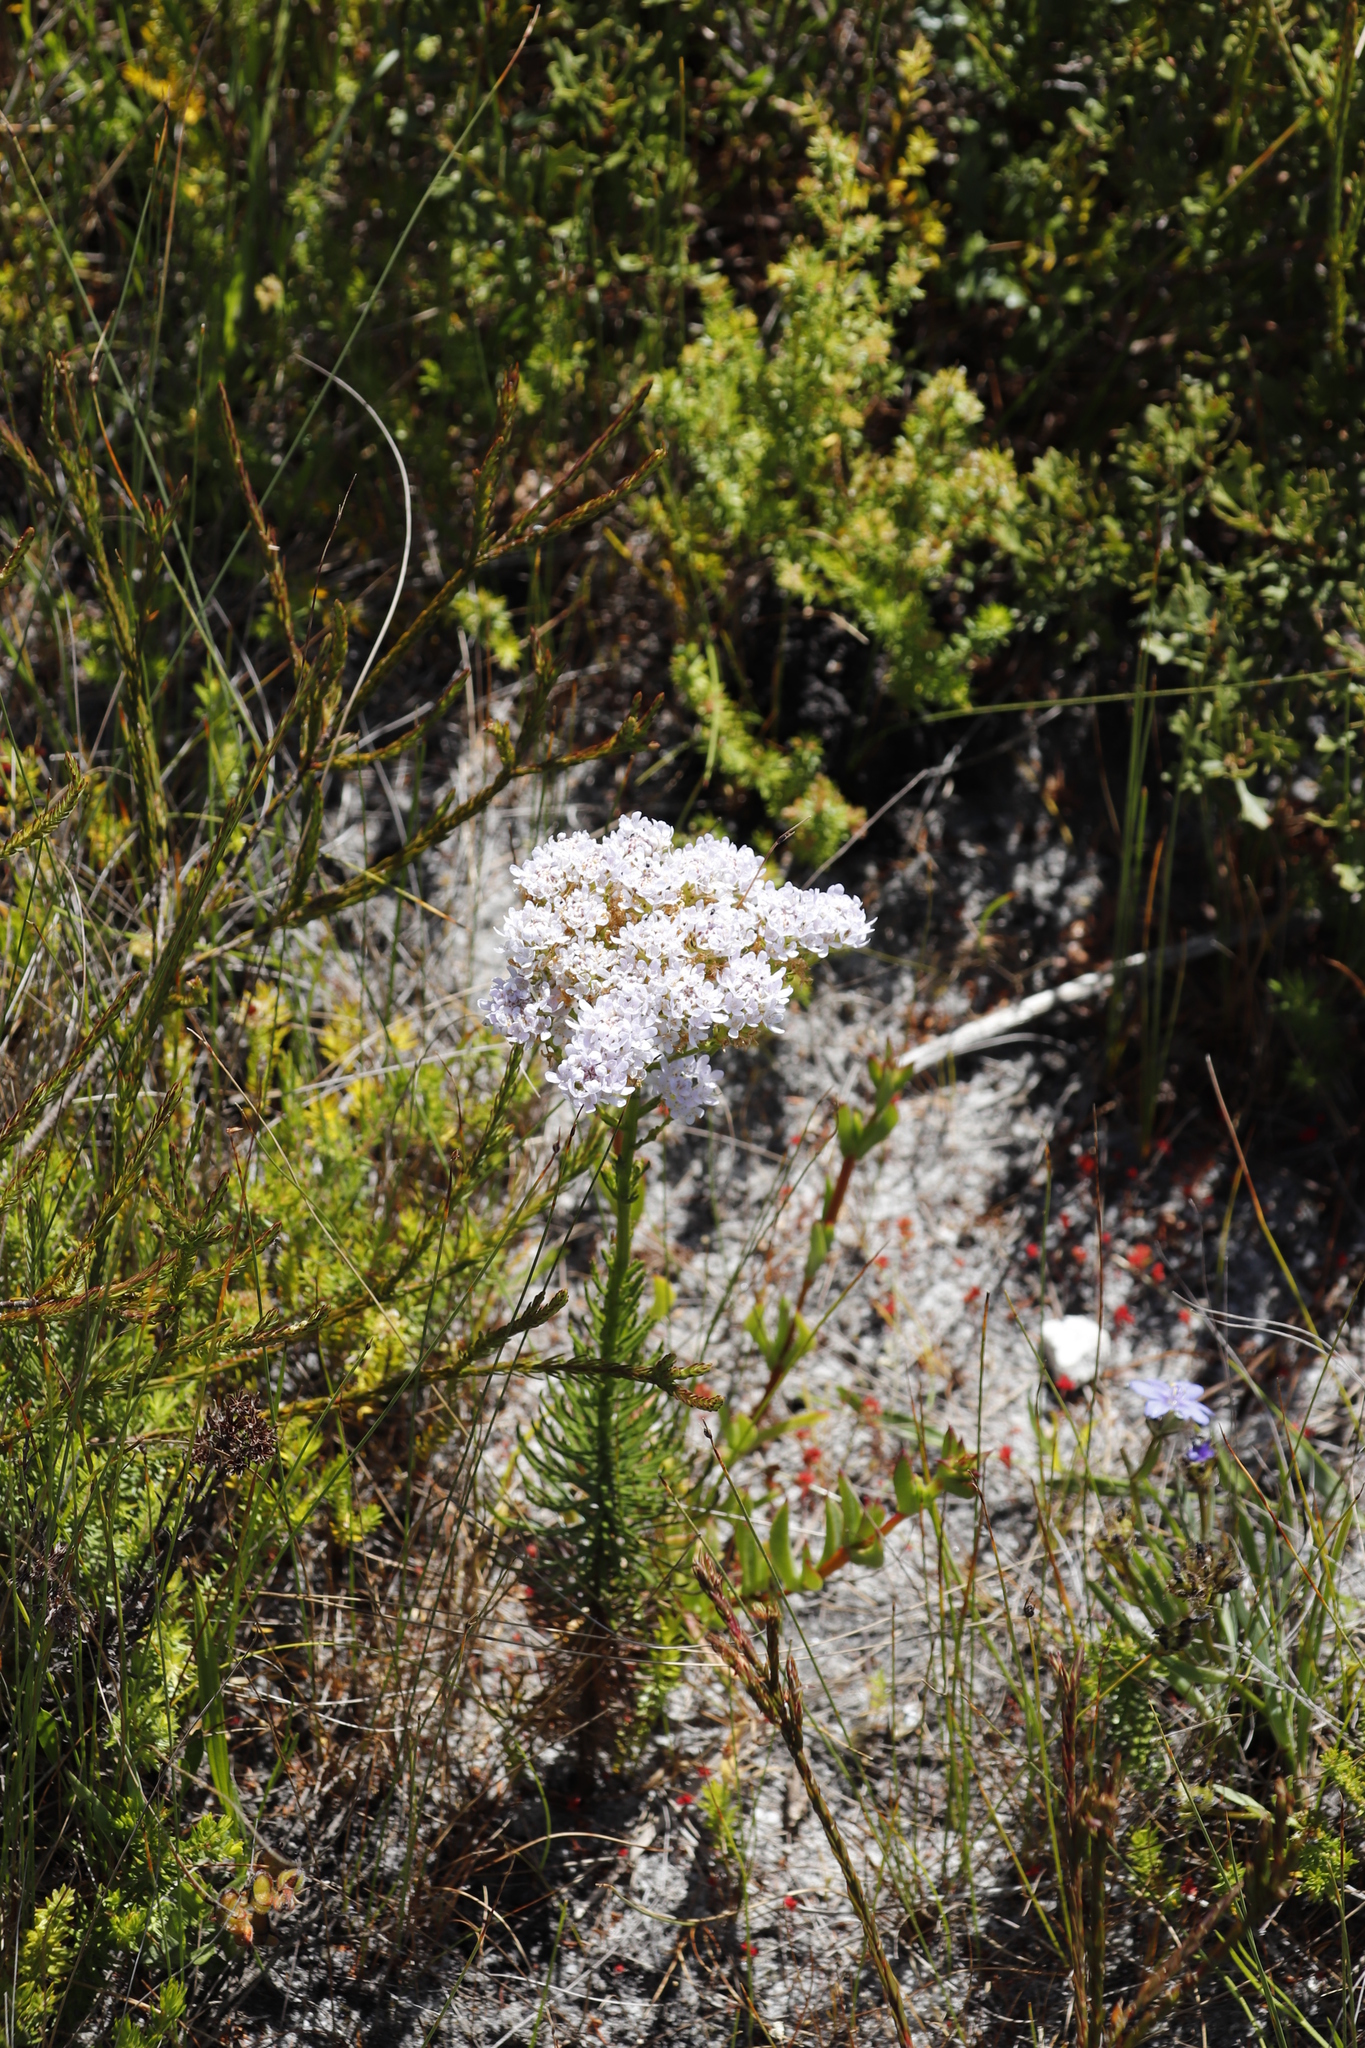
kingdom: Plantae
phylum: Tracheophyta
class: Magnoliopsida
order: Lamiales
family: Scrophulariaceae
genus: Pseudoselago
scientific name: Pseudoselago spuria
